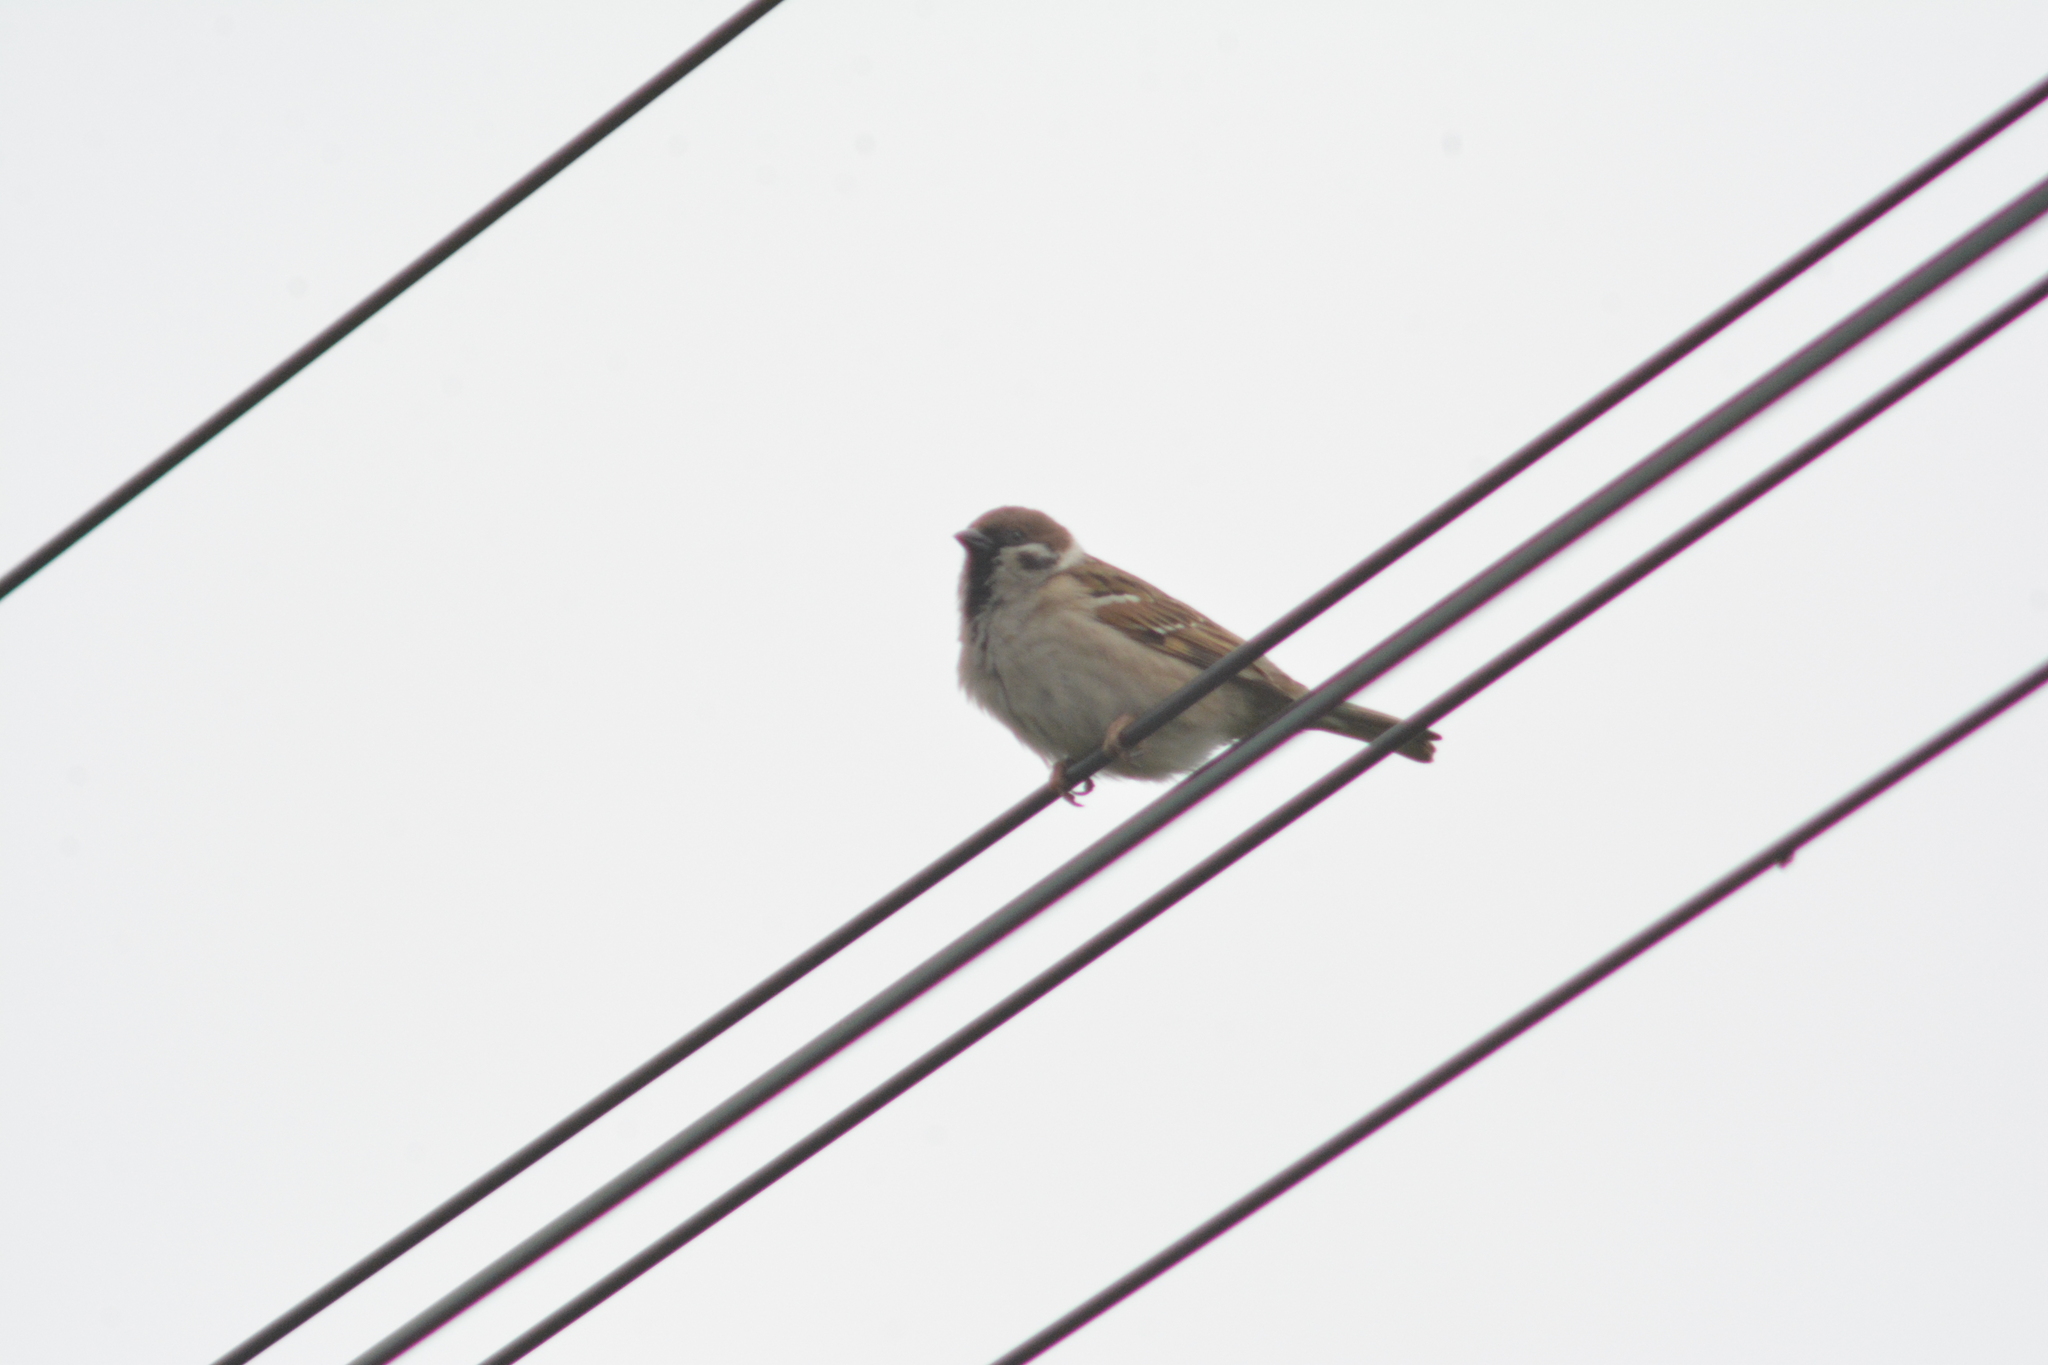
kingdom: Animalia
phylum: Chordata
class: Aves
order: Passeriformes
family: Passeridae
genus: Passer
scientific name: Passer montanus
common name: Eurasian tree sparrow
